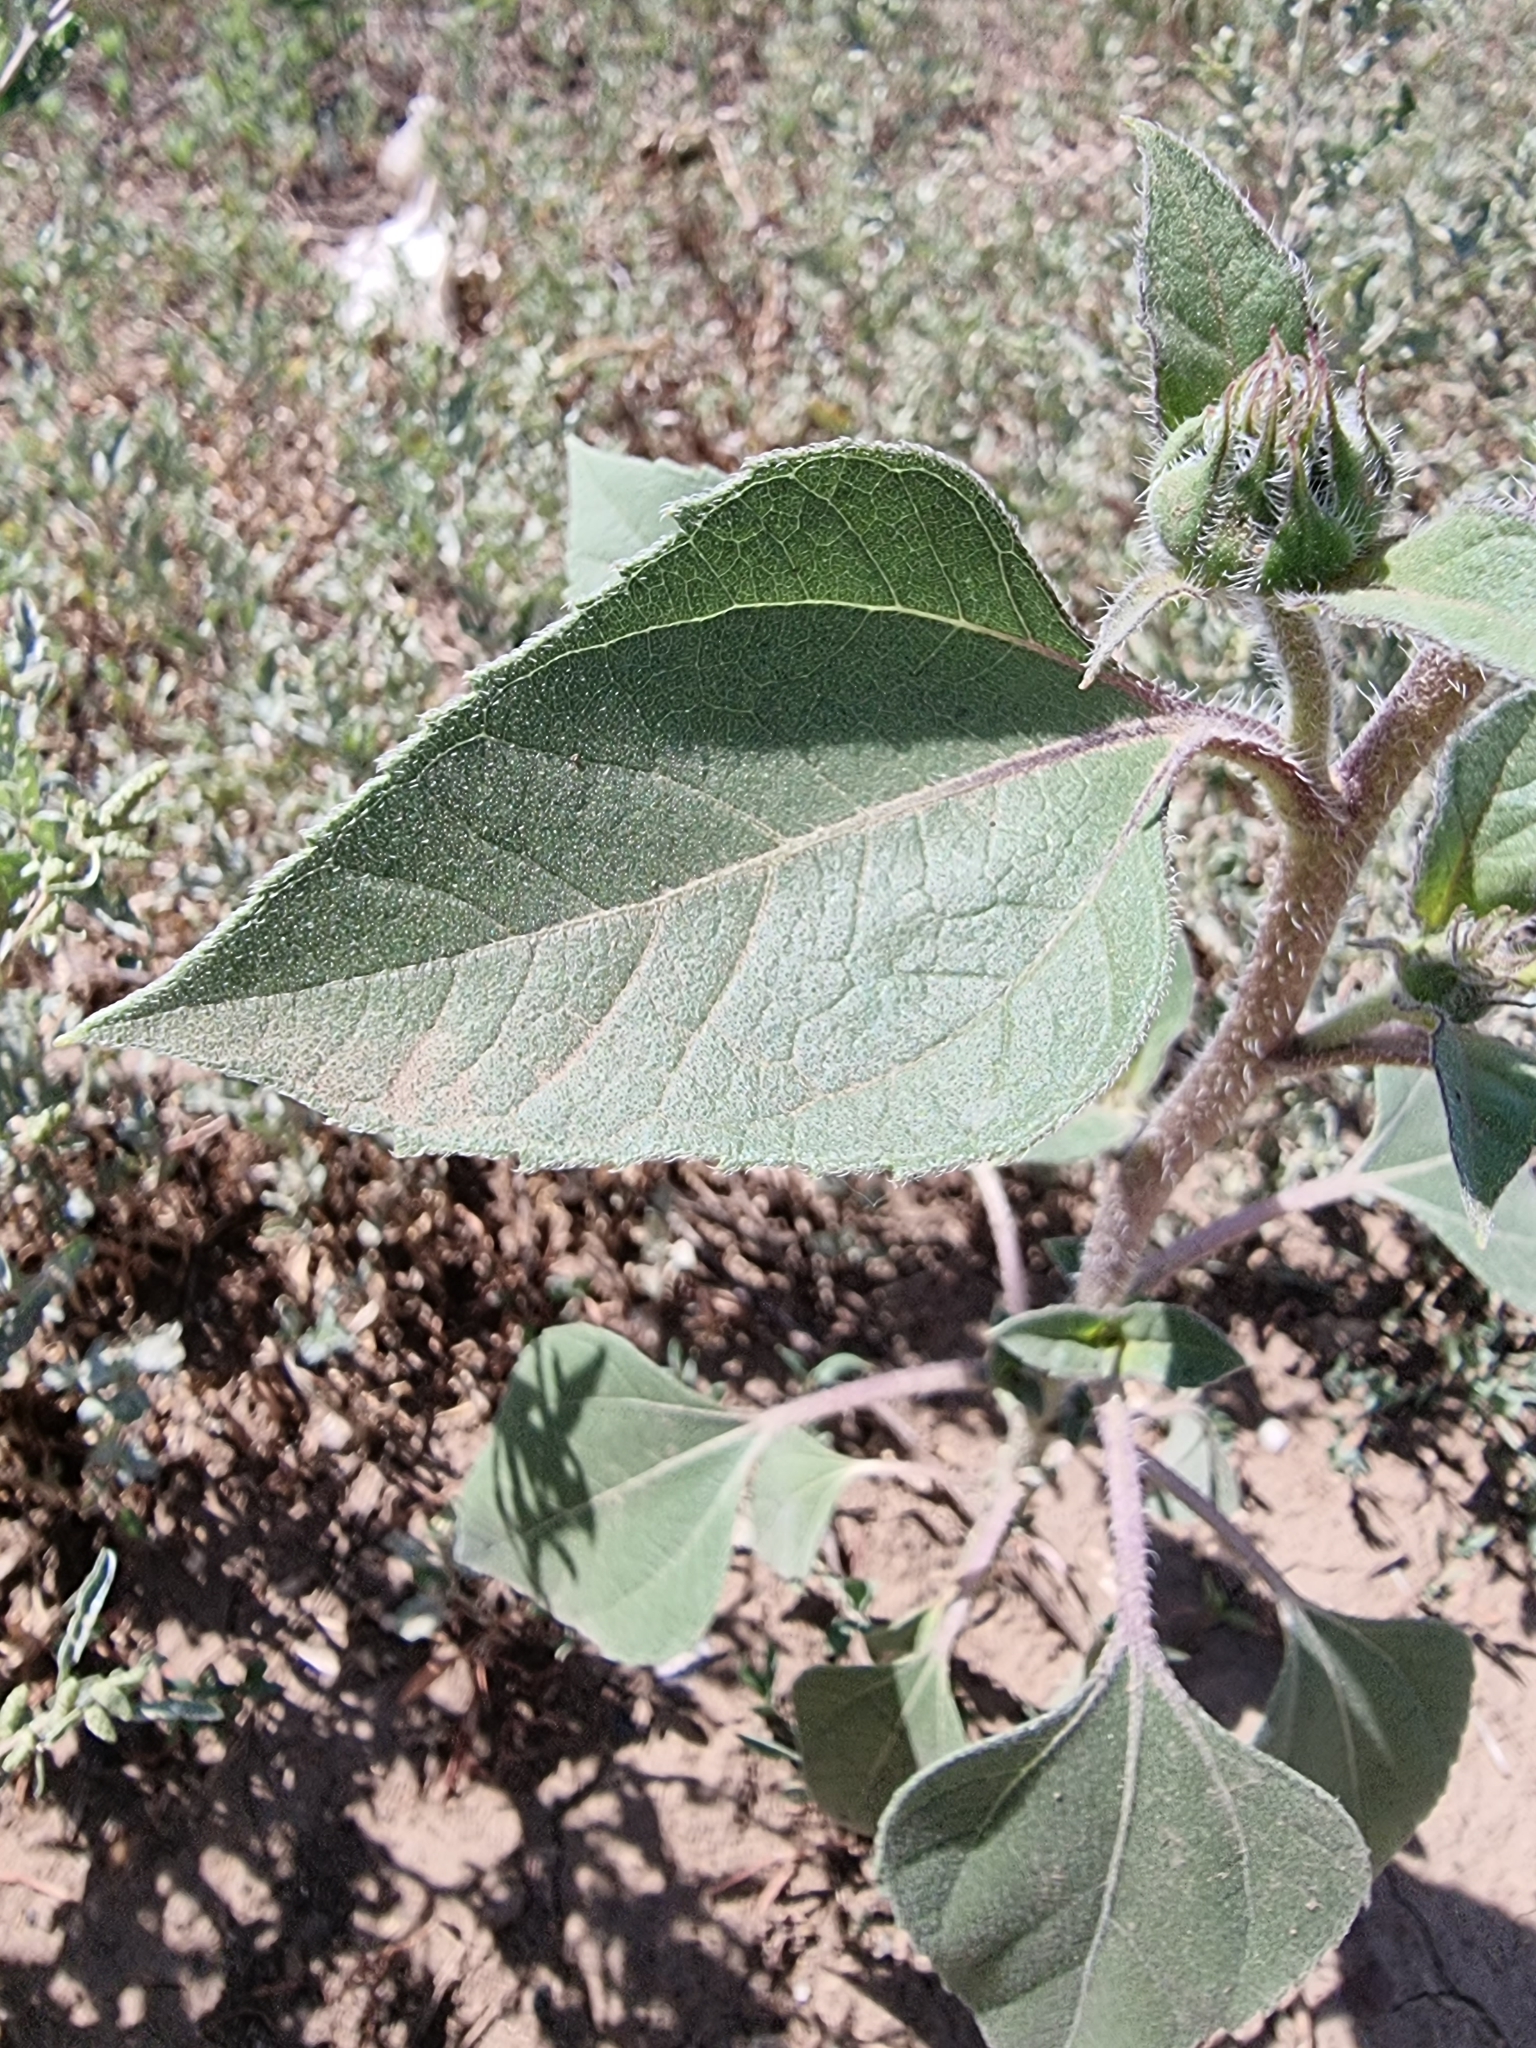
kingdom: Plantae
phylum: Tracheophyta
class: Magnoliopsida
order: Asterales
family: Asteraceae
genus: Helianthus
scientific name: Helianthus annuus
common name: Sunflower
